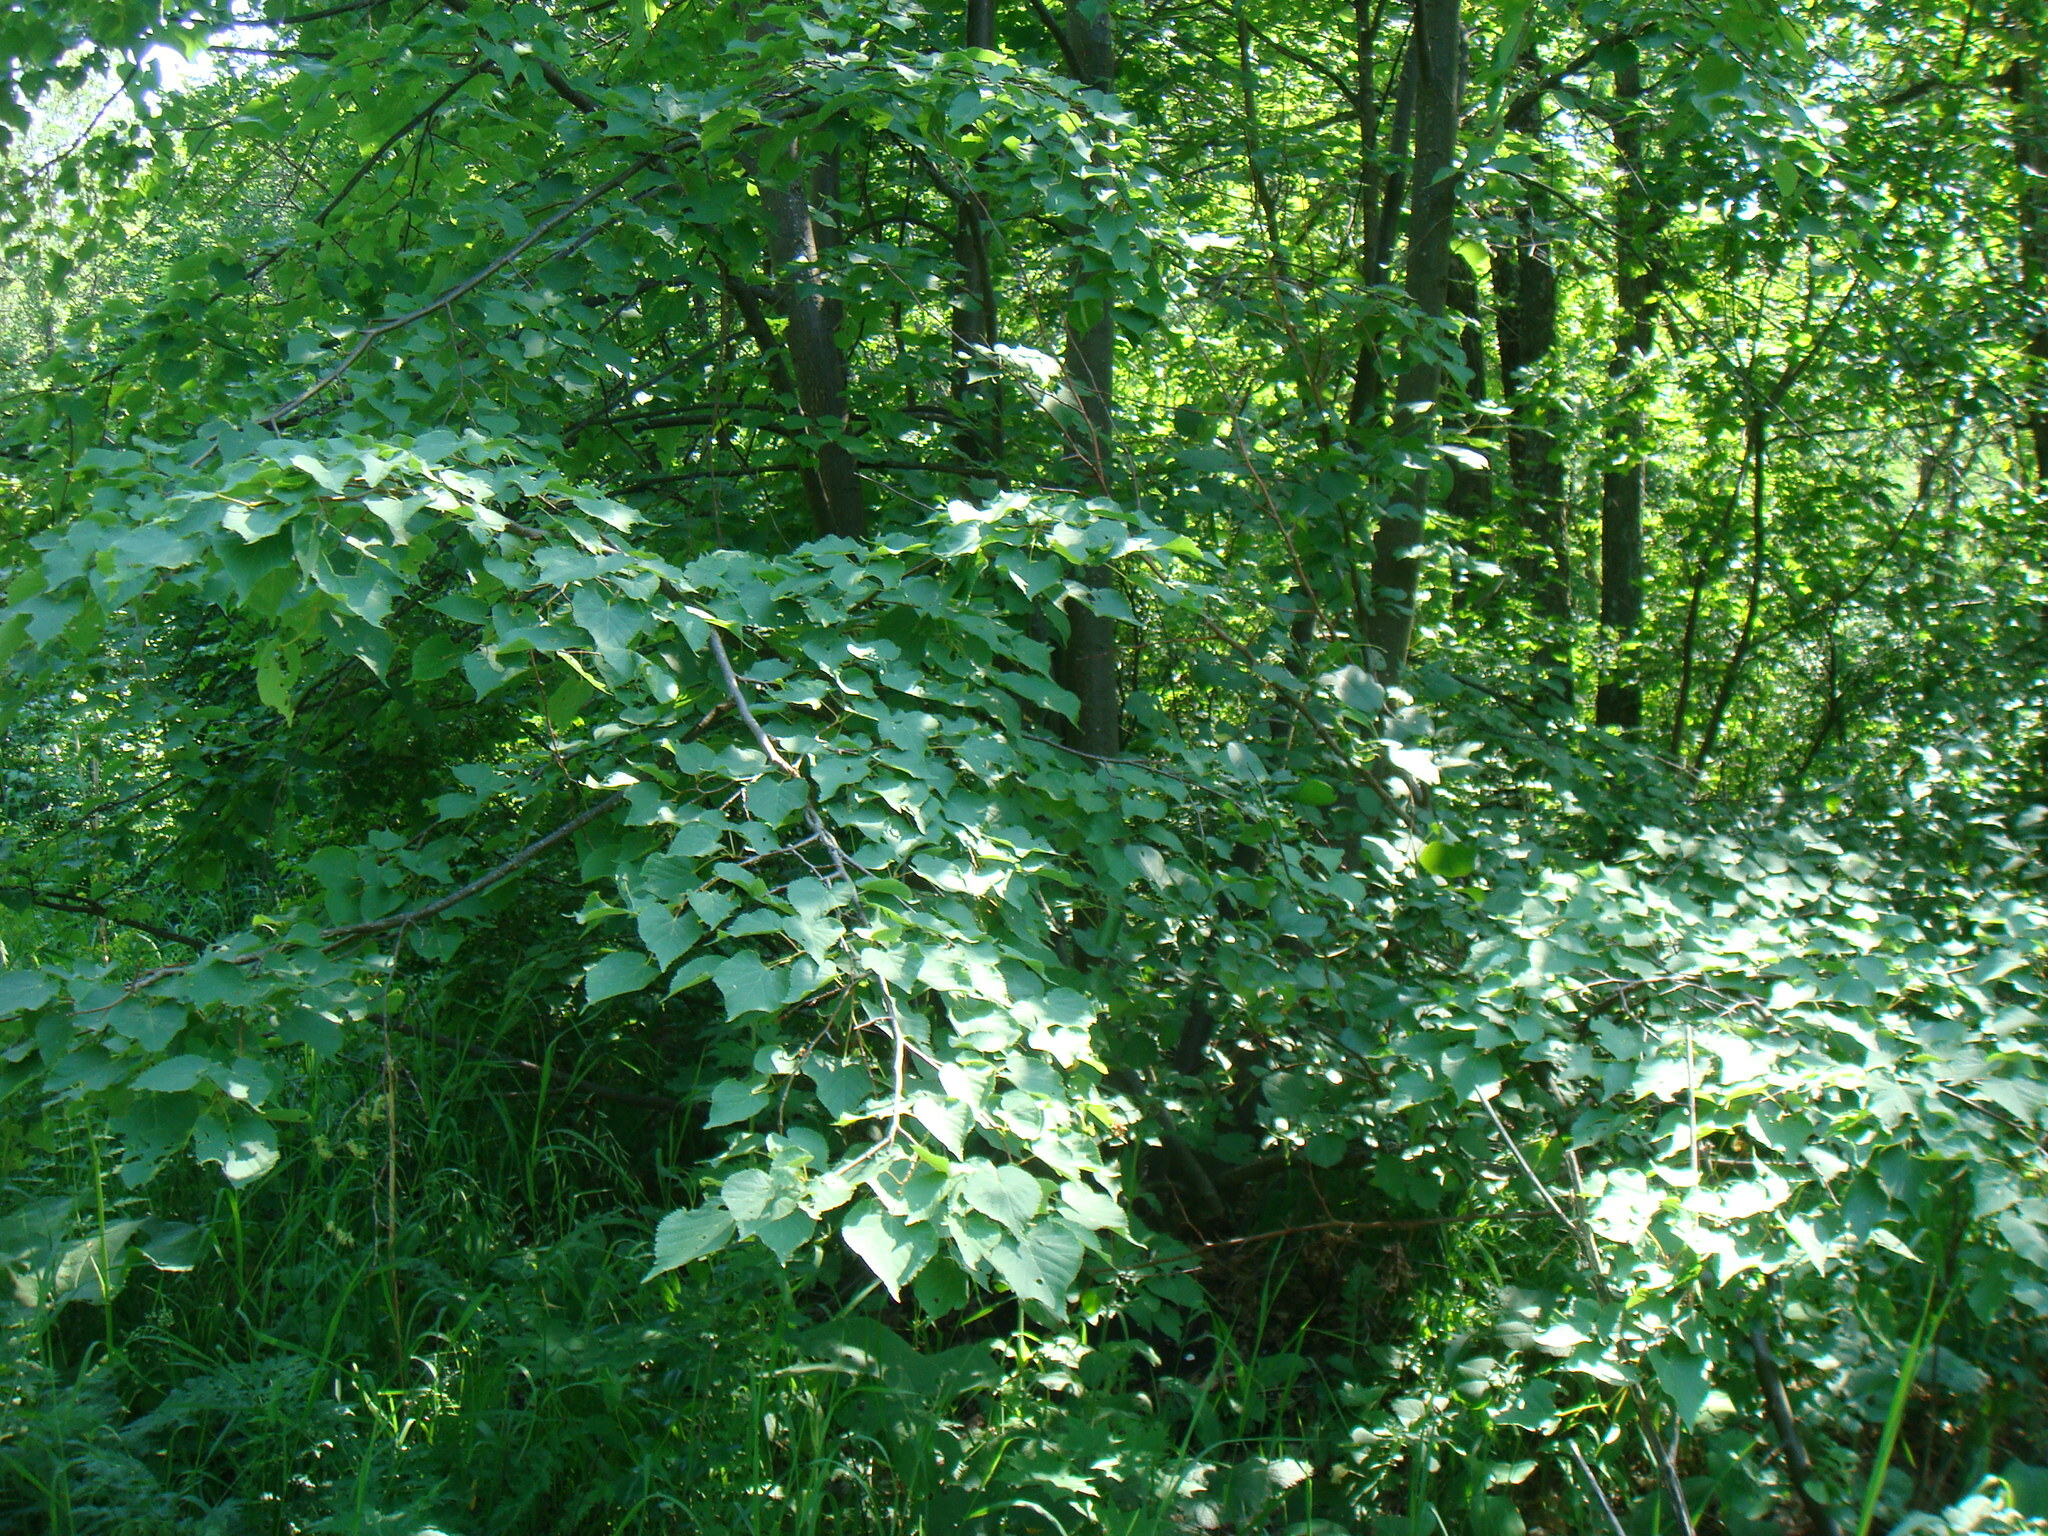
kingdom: Plantae
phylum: Tracheophyta
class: Magnoliopsida
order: Malvales
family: Malvaceae
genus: Tilia
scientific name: Tilia cordata
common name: Small-leaved lime
